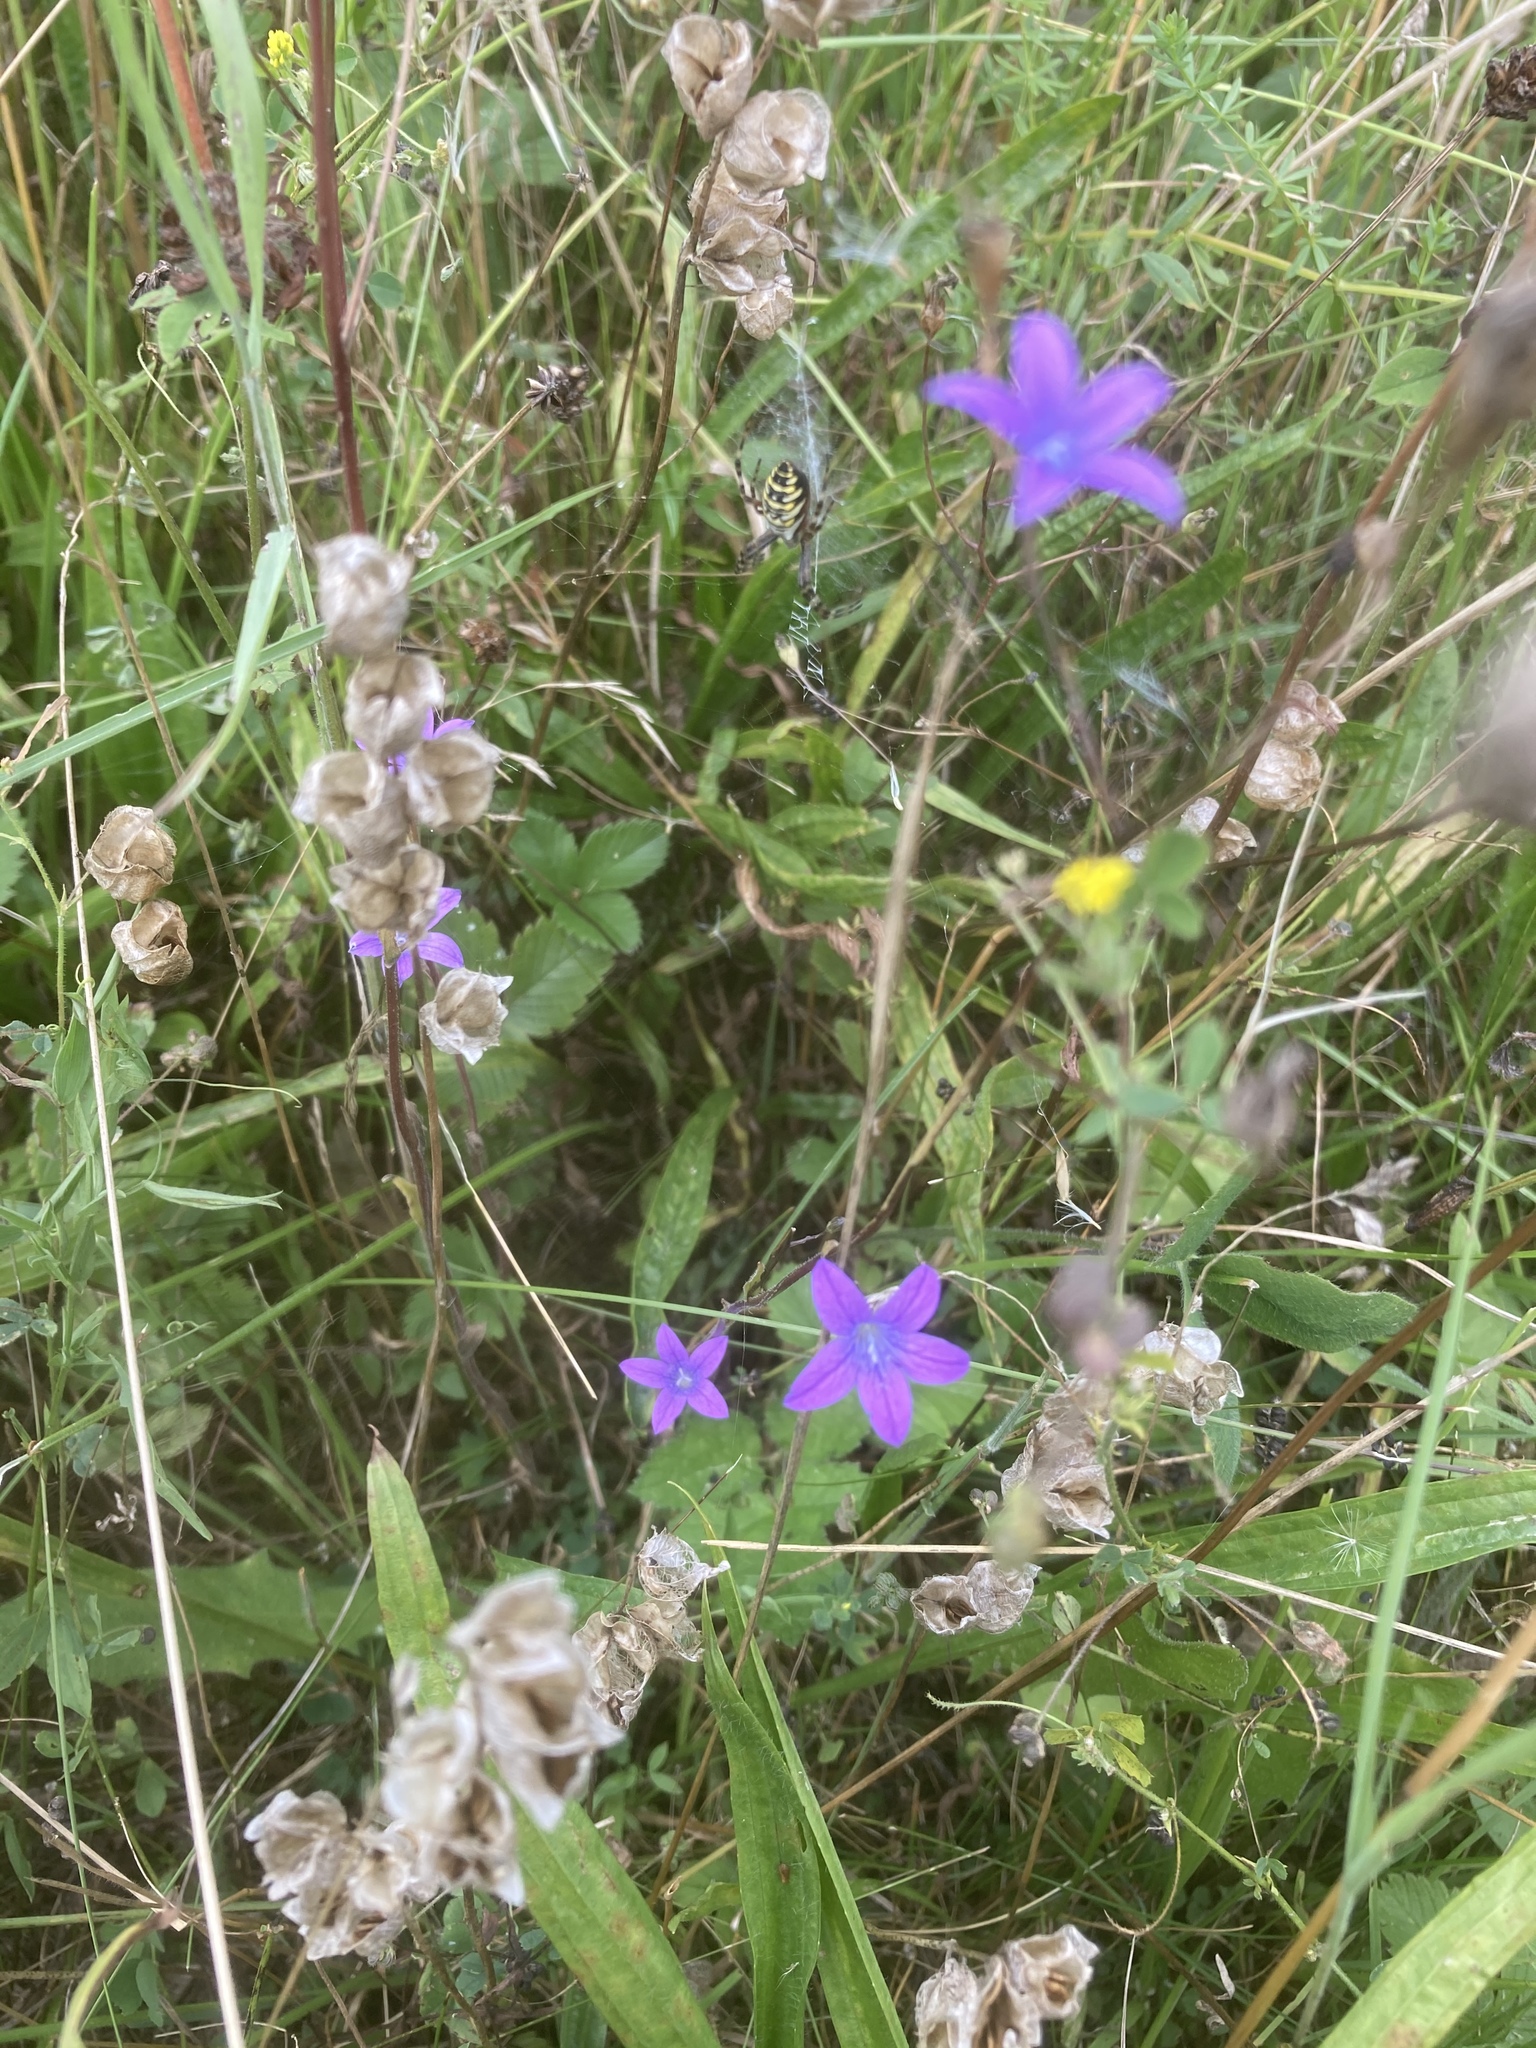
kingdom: Plantae
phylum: Tracheophyta
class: Magnoliopsida
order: Asterales
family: Campanulaceae
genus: Campanula
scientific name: Campanula patula
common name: Spreading bellflower
